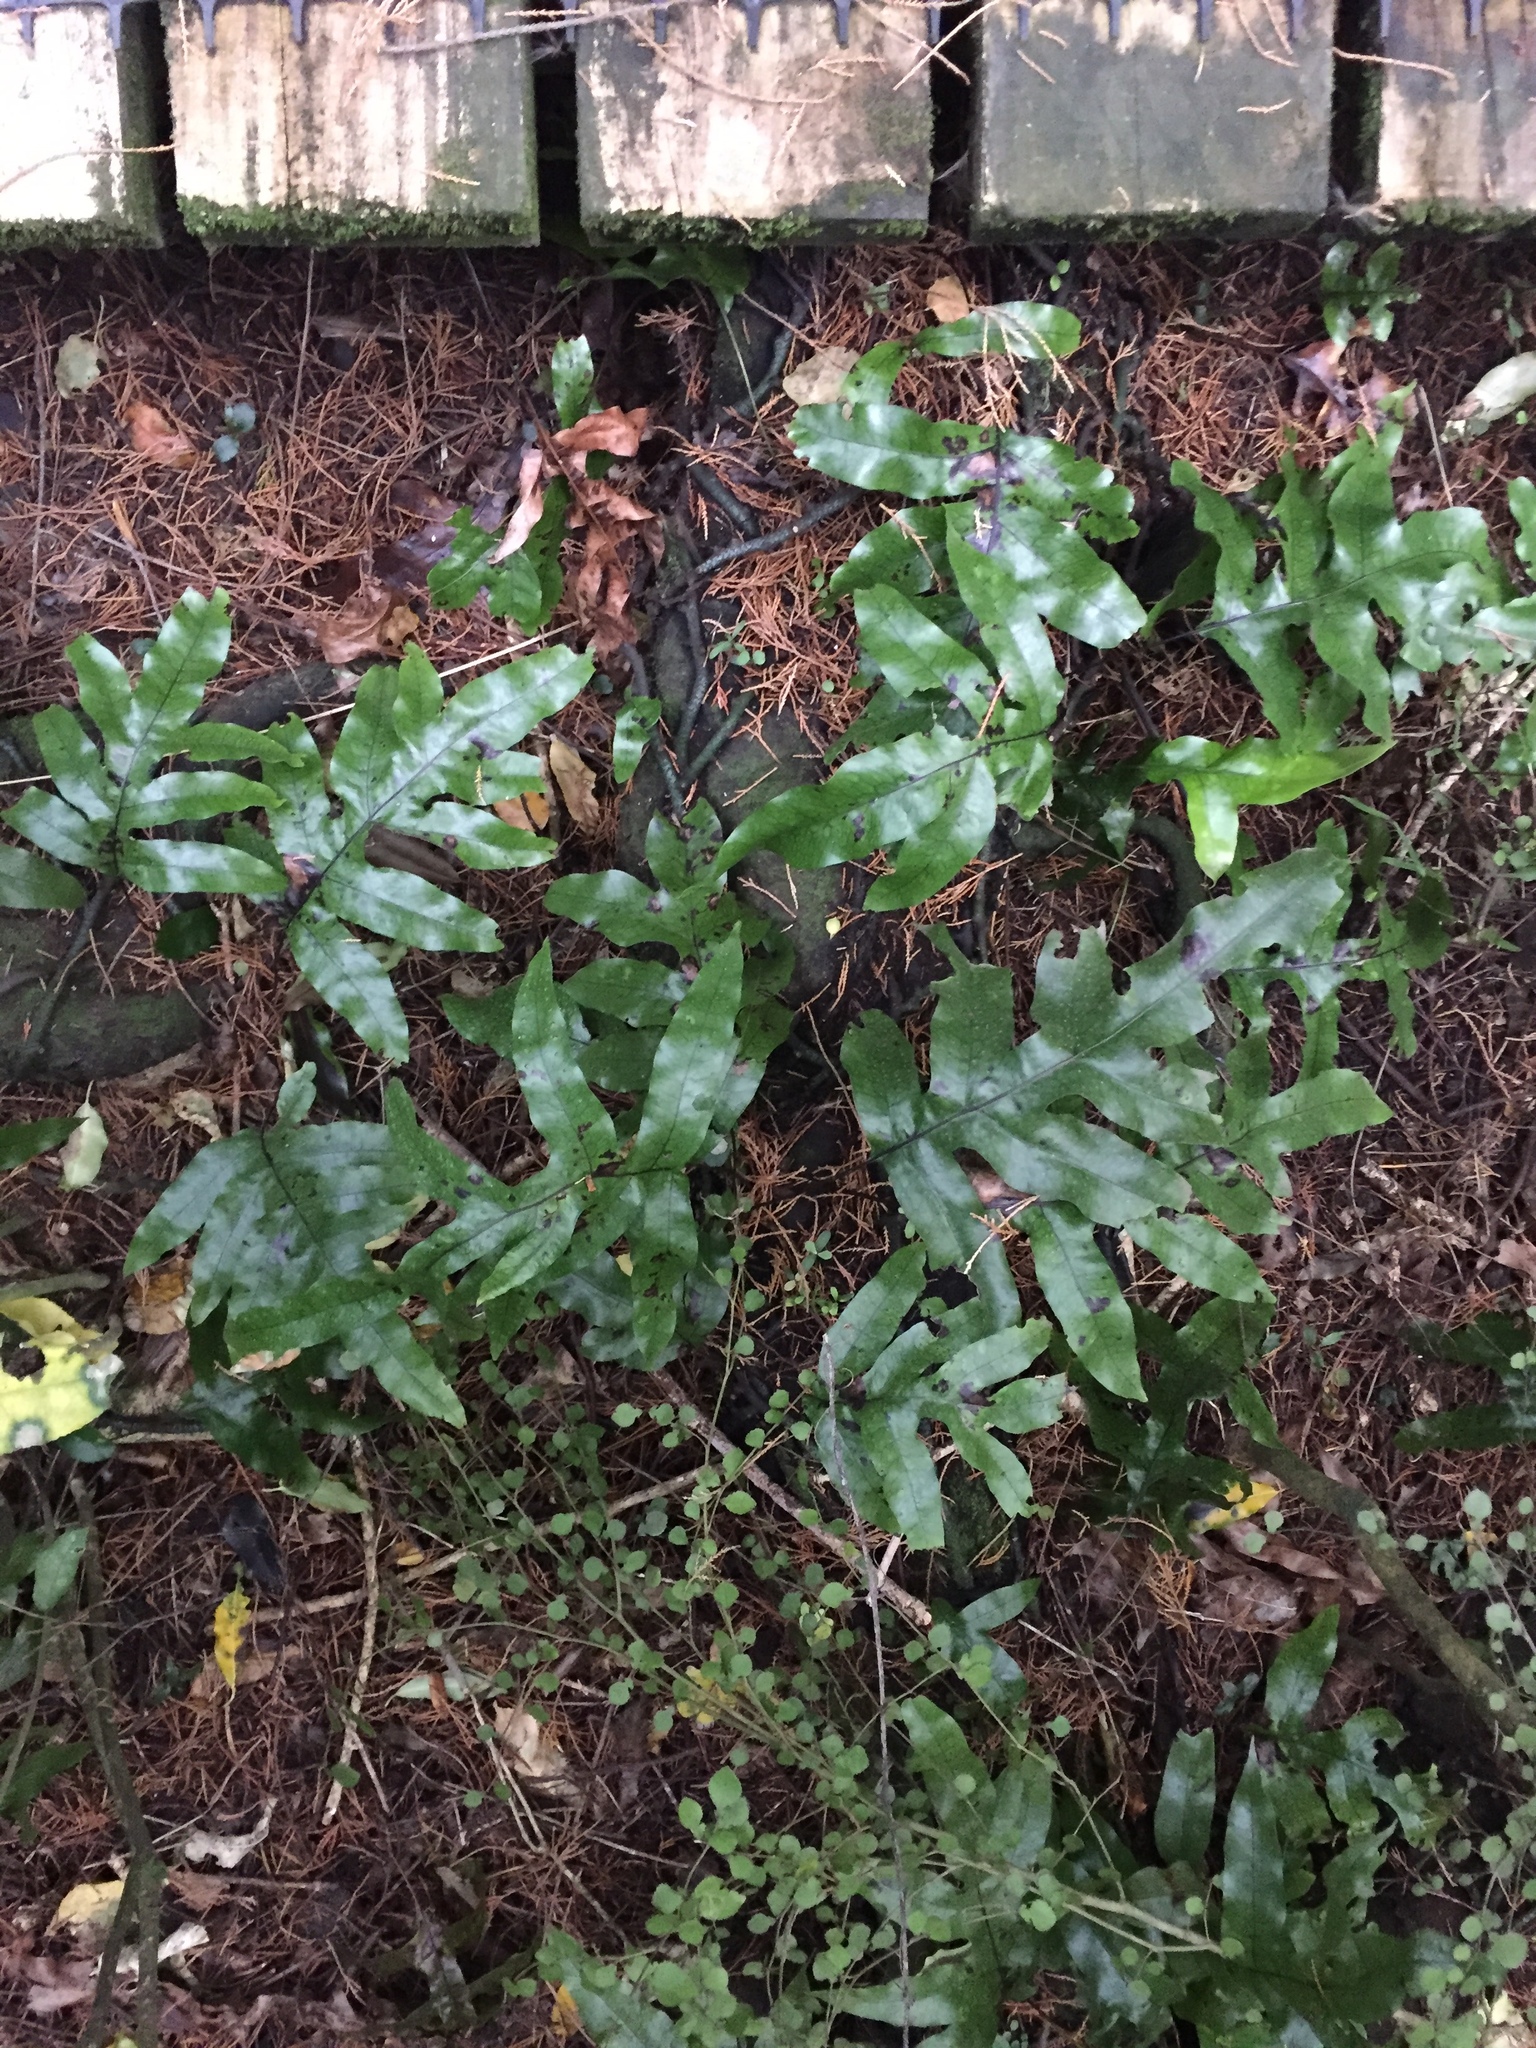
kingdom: Plantae
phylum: Tracheophyta
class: Polypodiopsida
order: Polypodiales
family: Polypodiaceae
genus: Lecanopteris
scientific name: Lecanopteris pustulata
